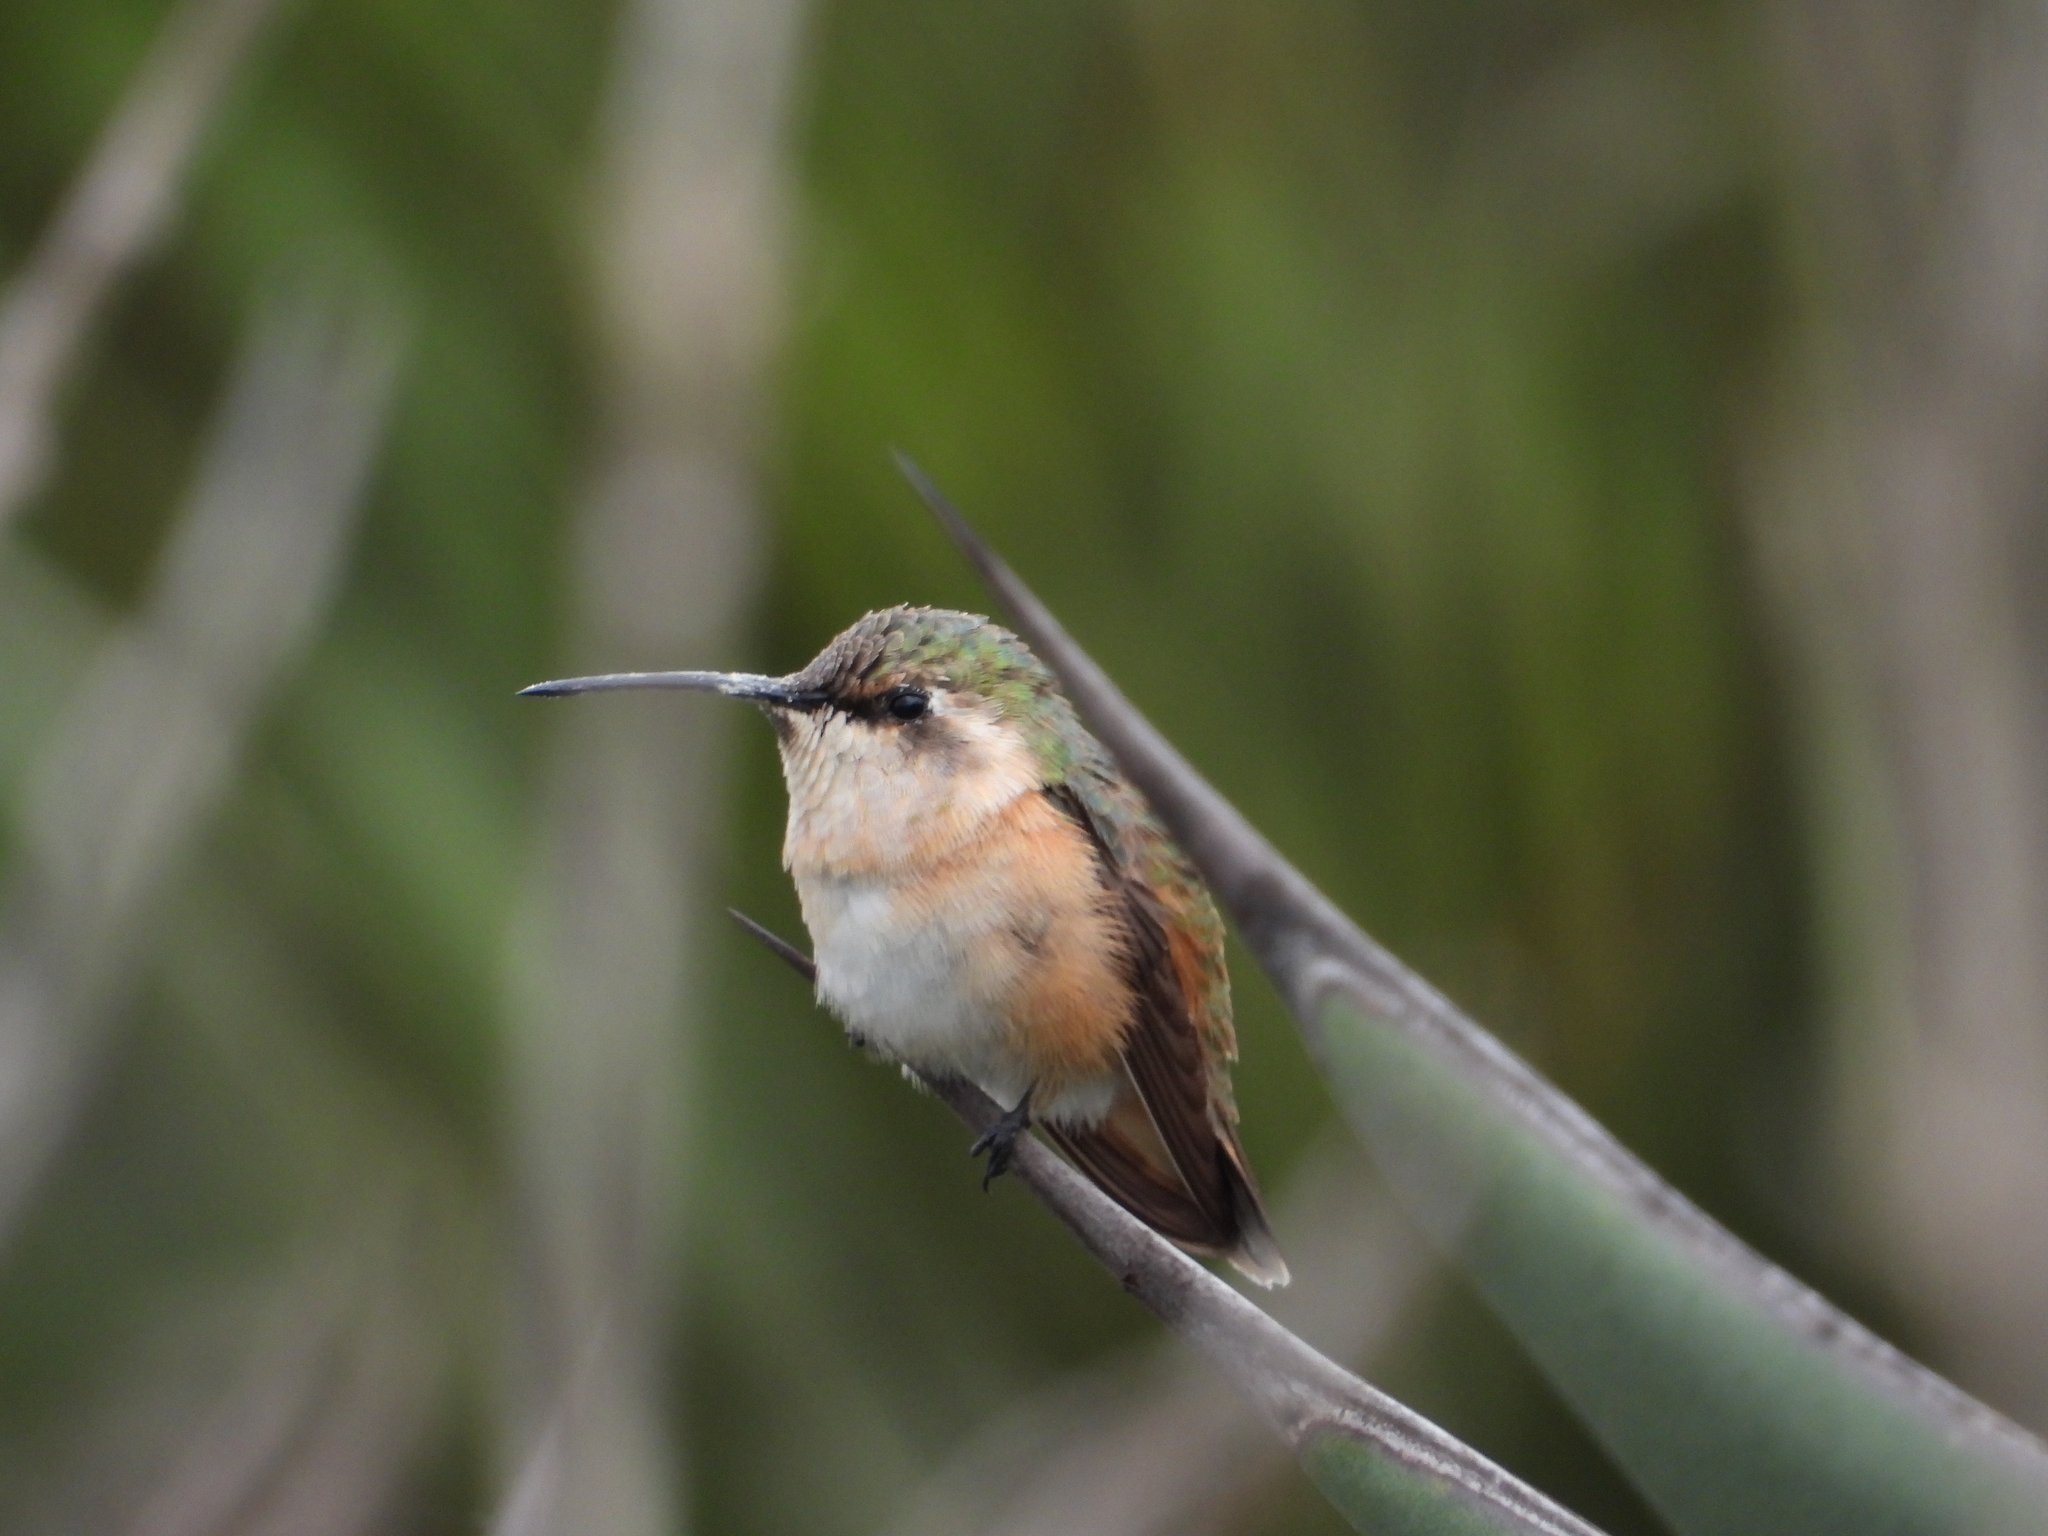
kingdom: Animalia
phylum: Chordata
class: Aves
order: Apodiformes
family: Trochilidae
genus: Calothorax
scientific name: Calothorax lucifer
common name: Lucifer sheartail
